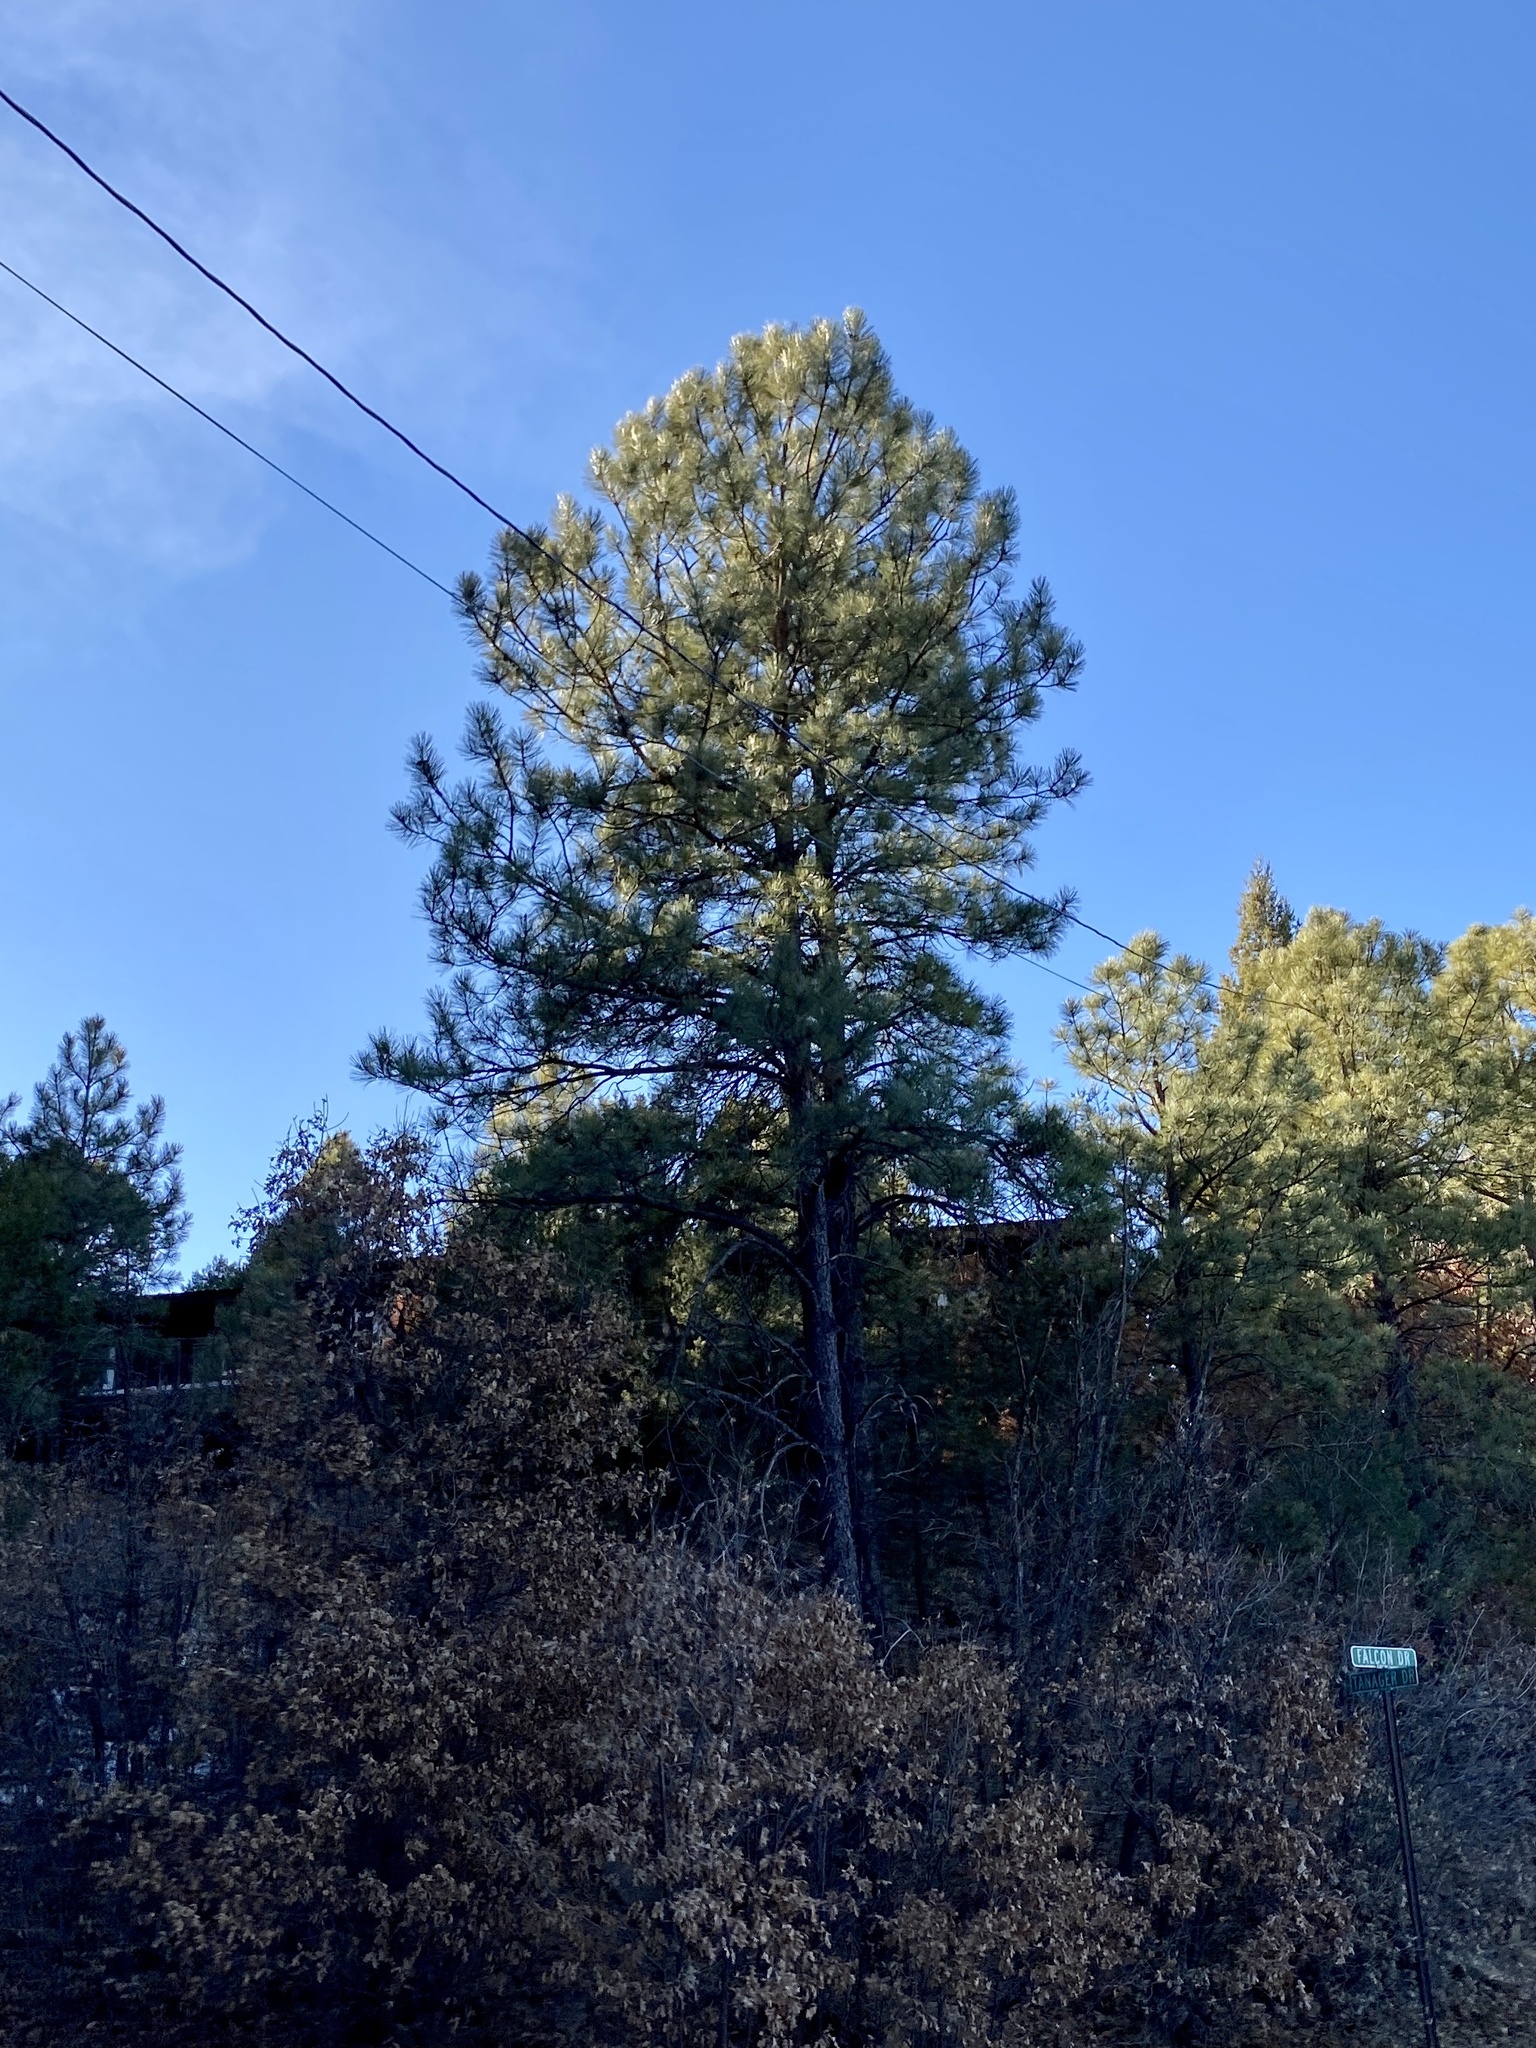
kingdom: Plantae
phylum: Tracheophyta
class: Pinopsida
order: Pinales
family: Pinaceae
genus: Pinus
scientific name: Pinus ponderosa
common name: Western yellow-pine
